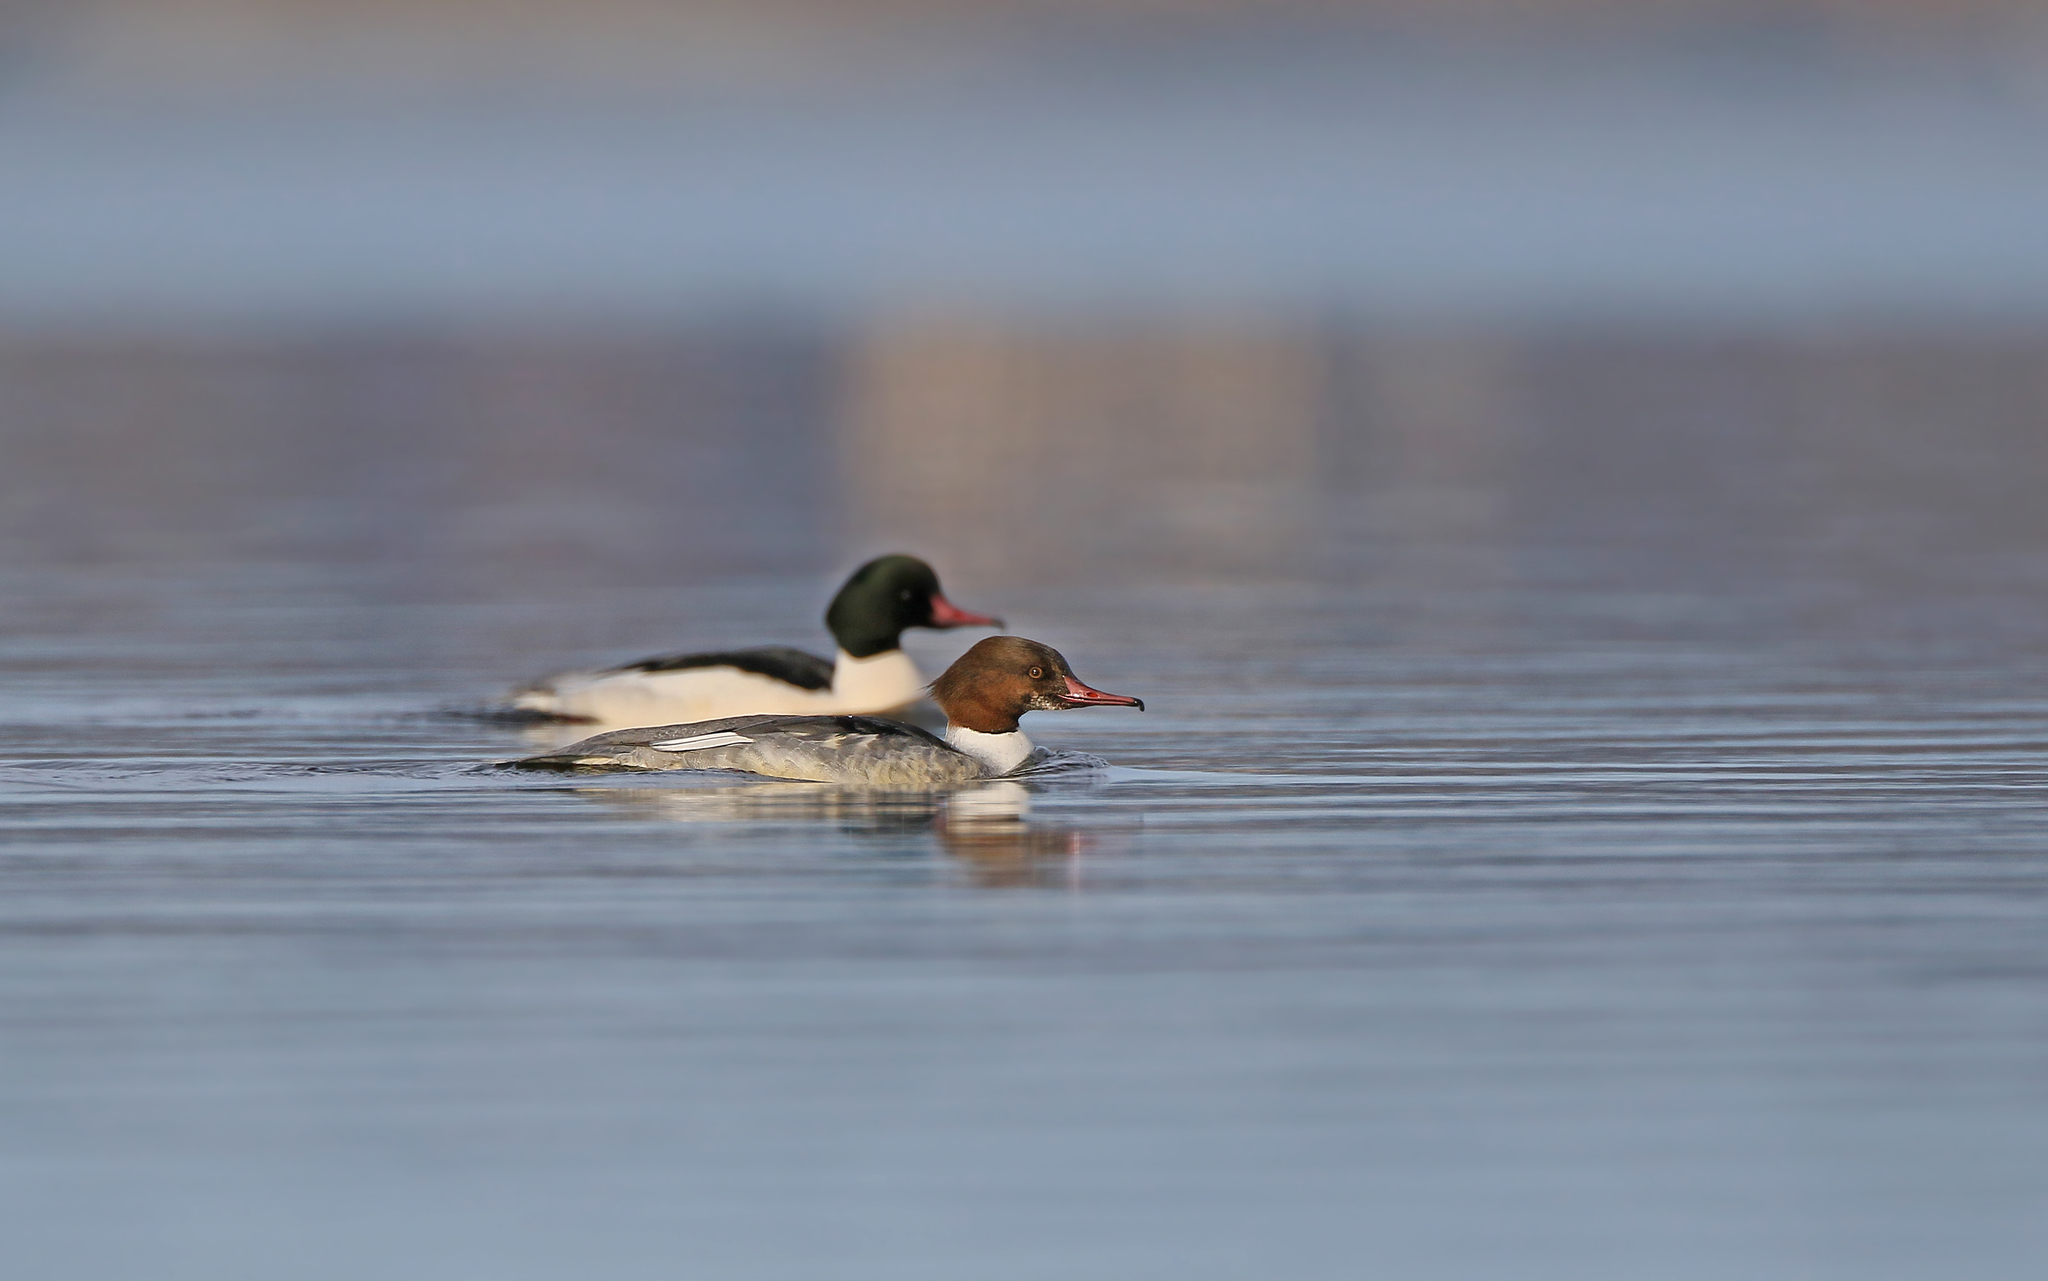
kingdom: Animalia
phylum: Chordata
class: Aves
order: Anseriformes
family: Anatidae
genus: Mergus
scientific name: Mergus merganser
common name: Common merganser
